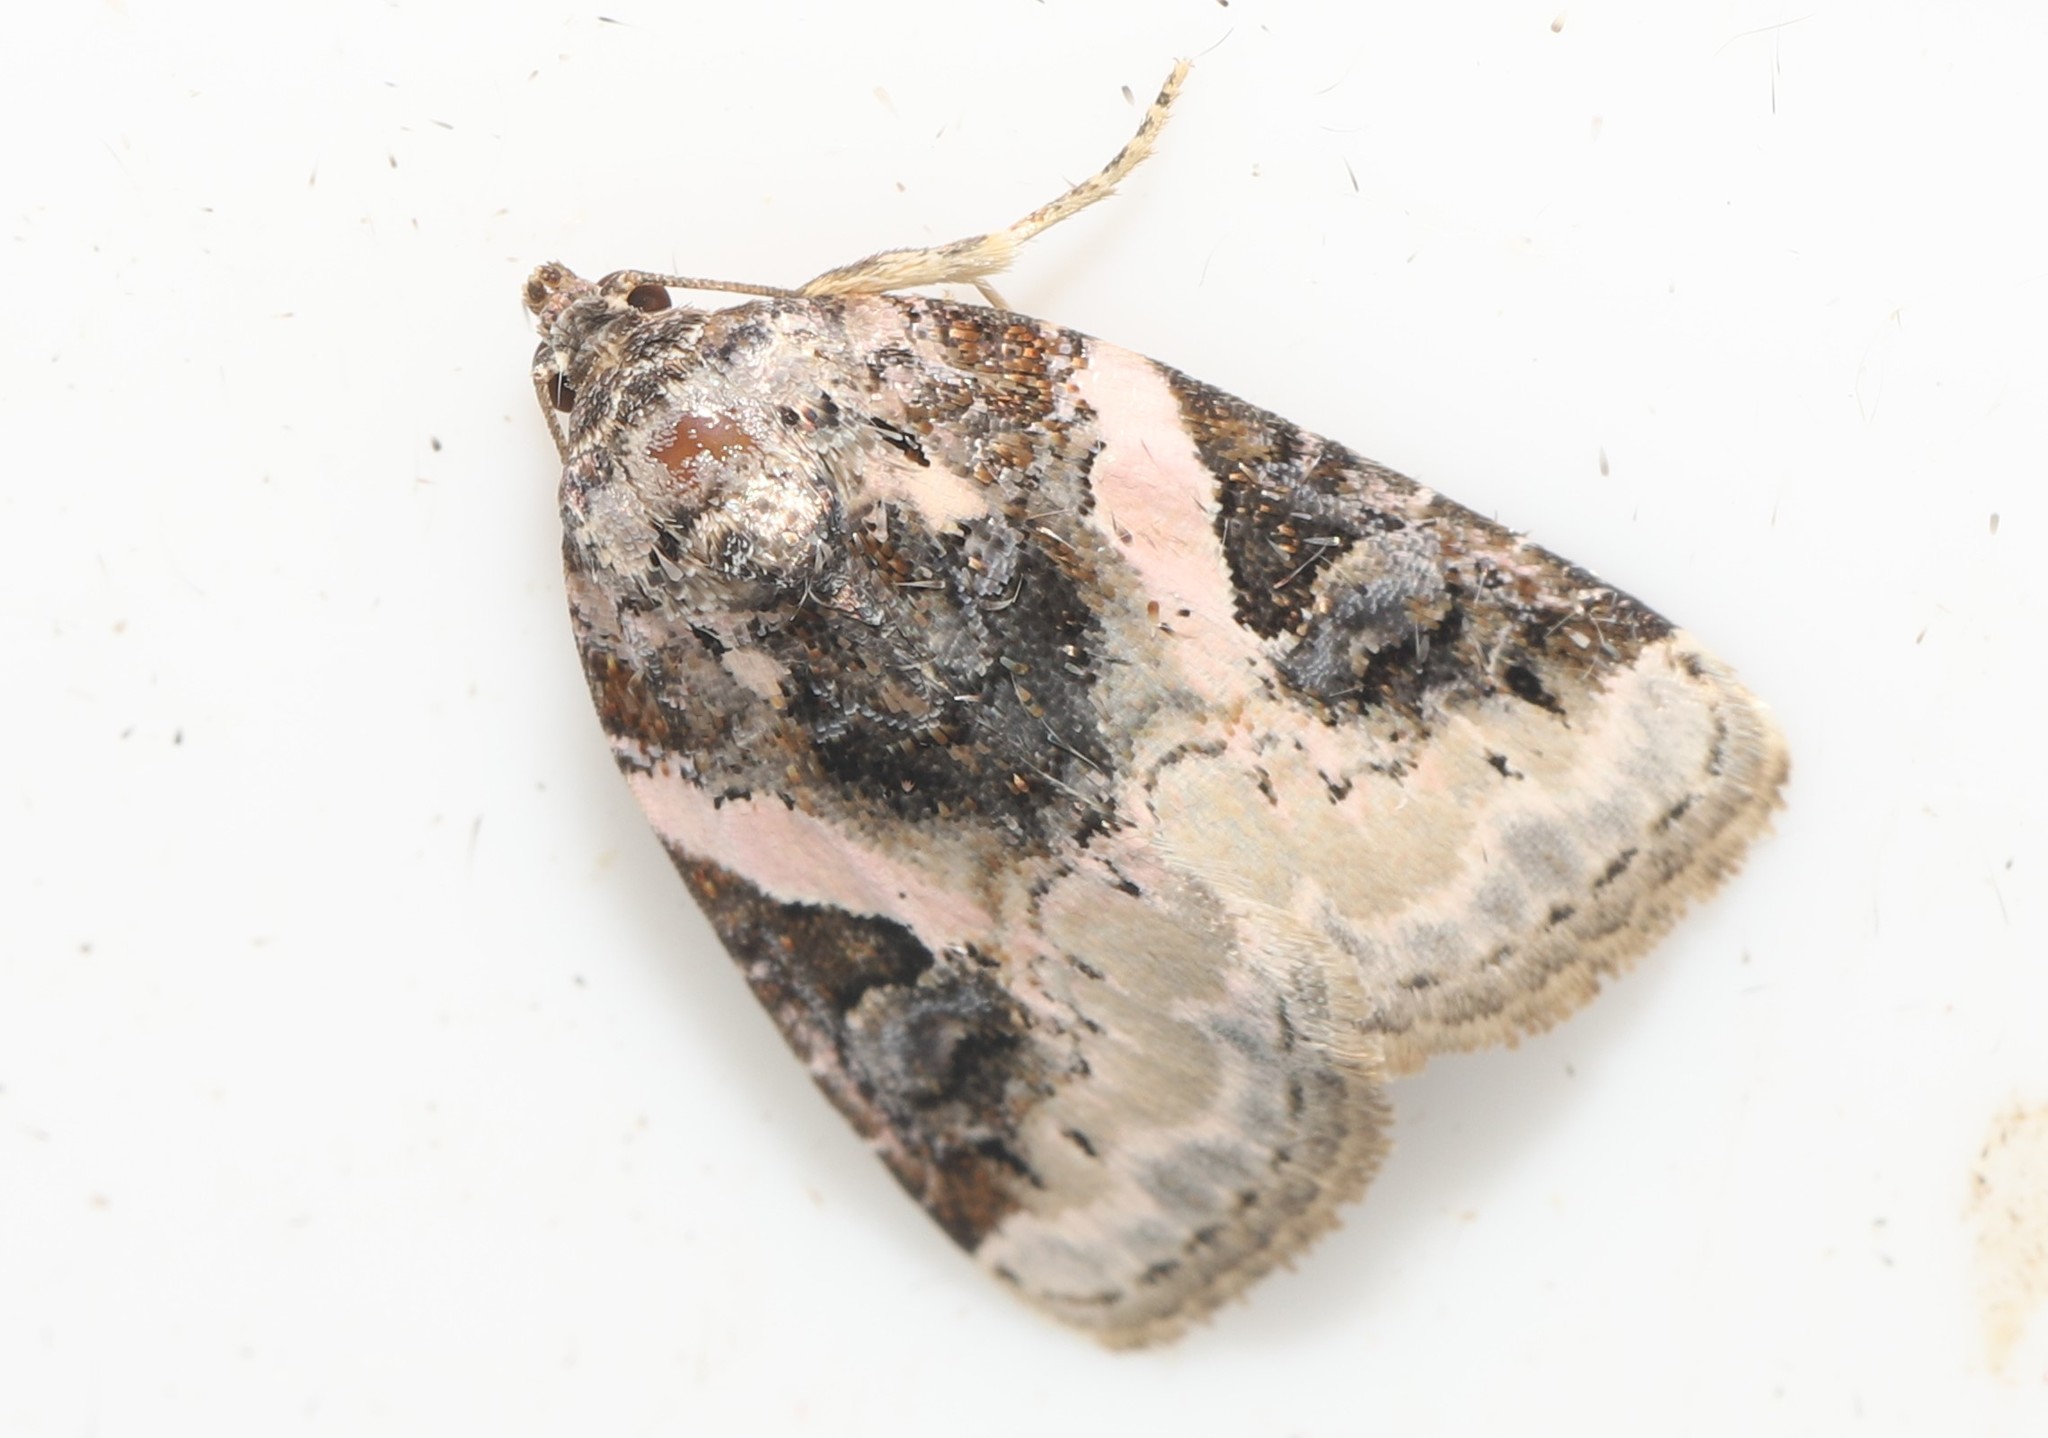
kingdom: Animalia
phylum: Arthropoda
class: Insecta
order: Lepidoptera
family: Noctuidae
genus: Pseudeustrotia
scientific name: Pseudeustrotia carneola
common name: Pink-barred lithacodia moth
